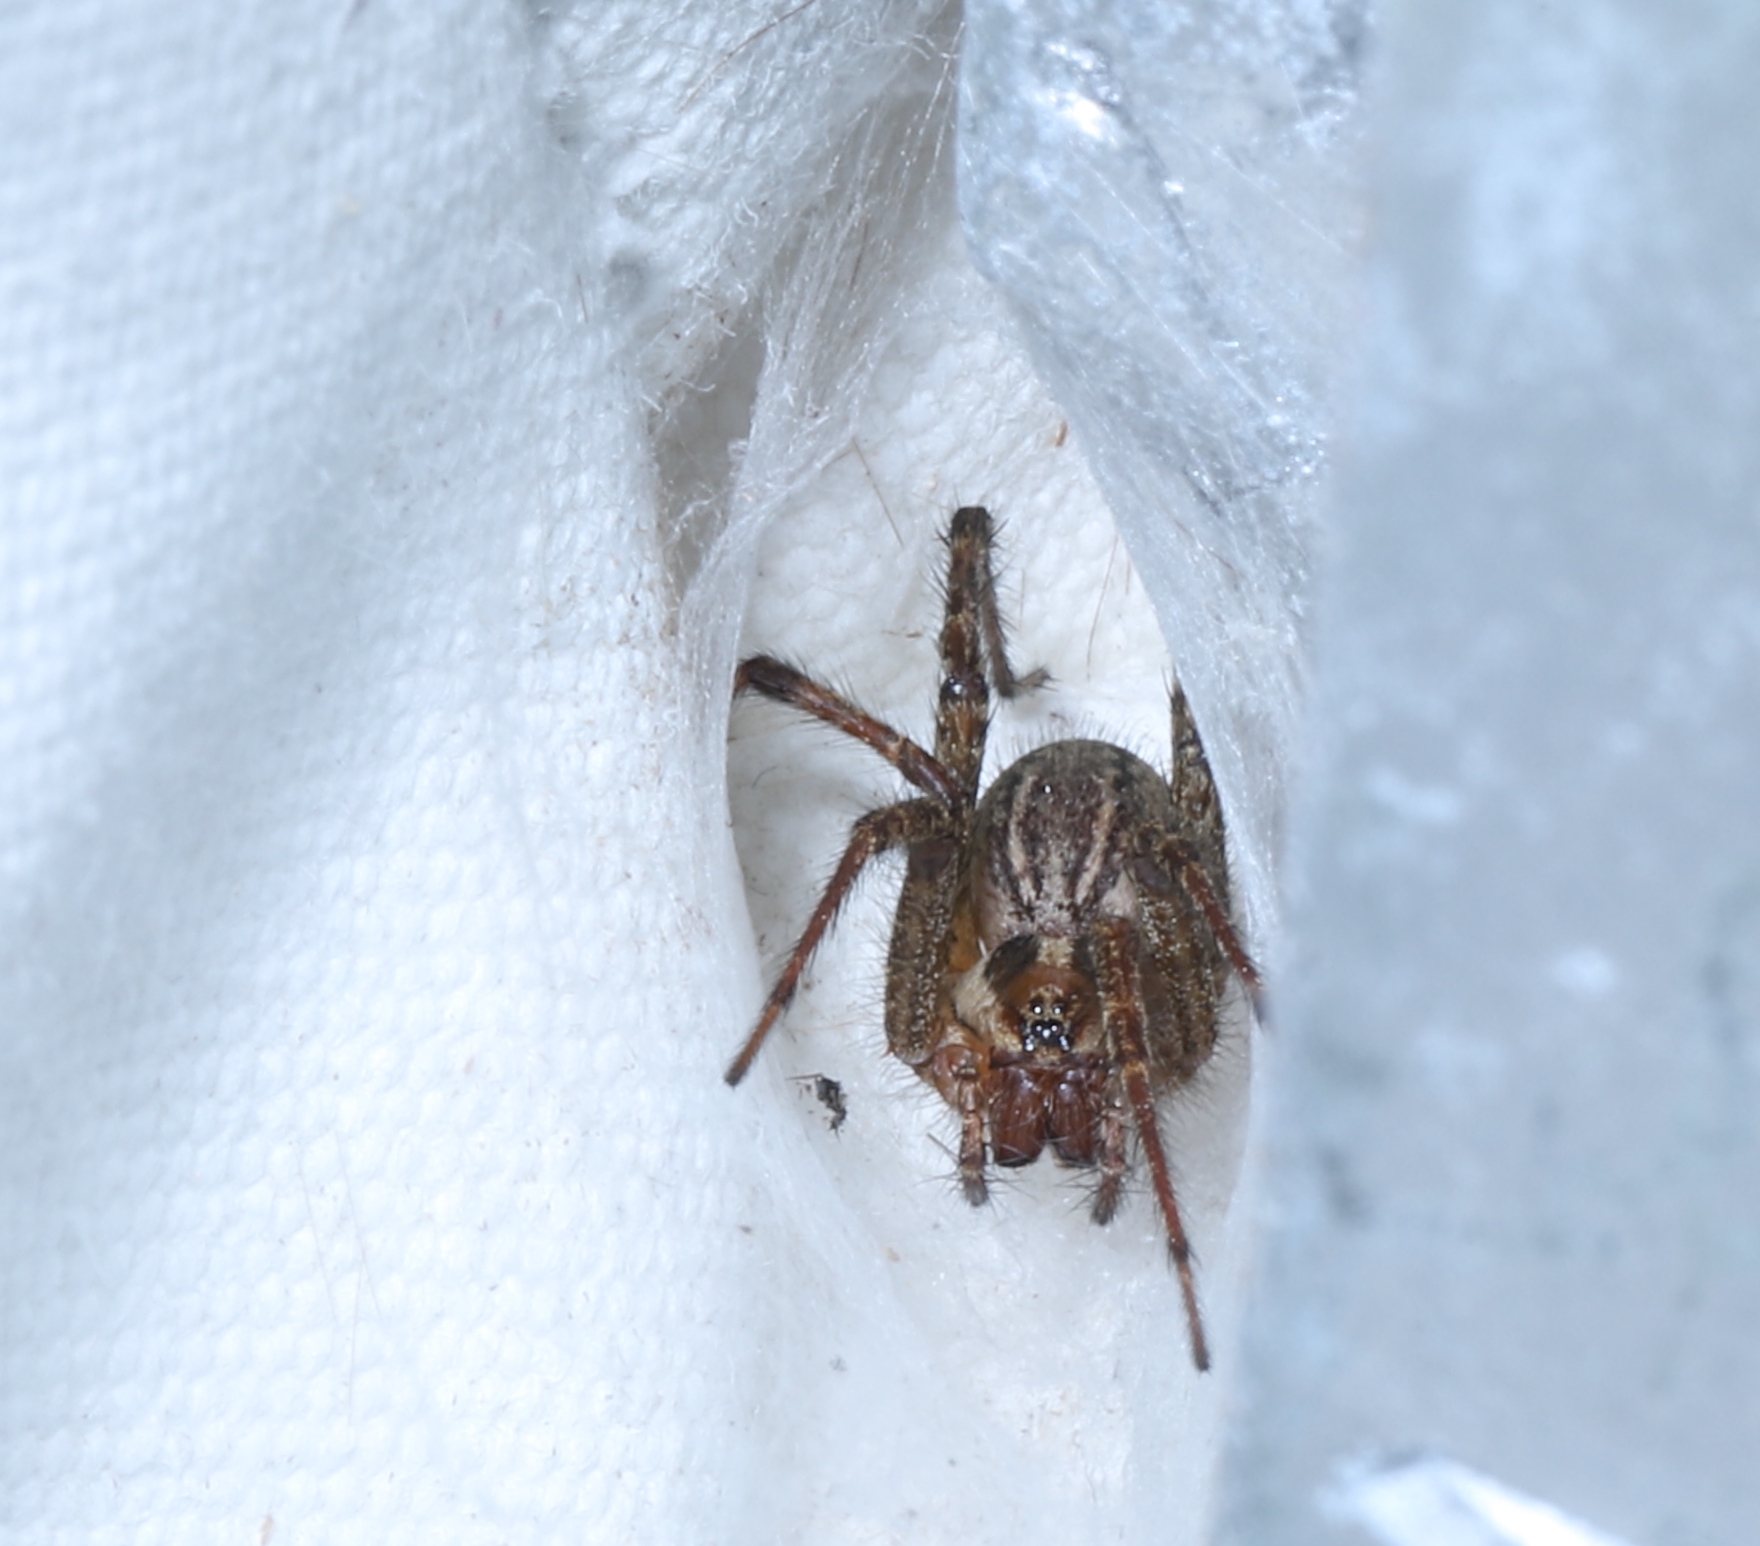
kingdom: Animalia
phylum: Arthropoda
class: Arachnida
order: Araneae
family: Agelenidae
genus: Agelenopsis
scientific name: Agelenopsis
